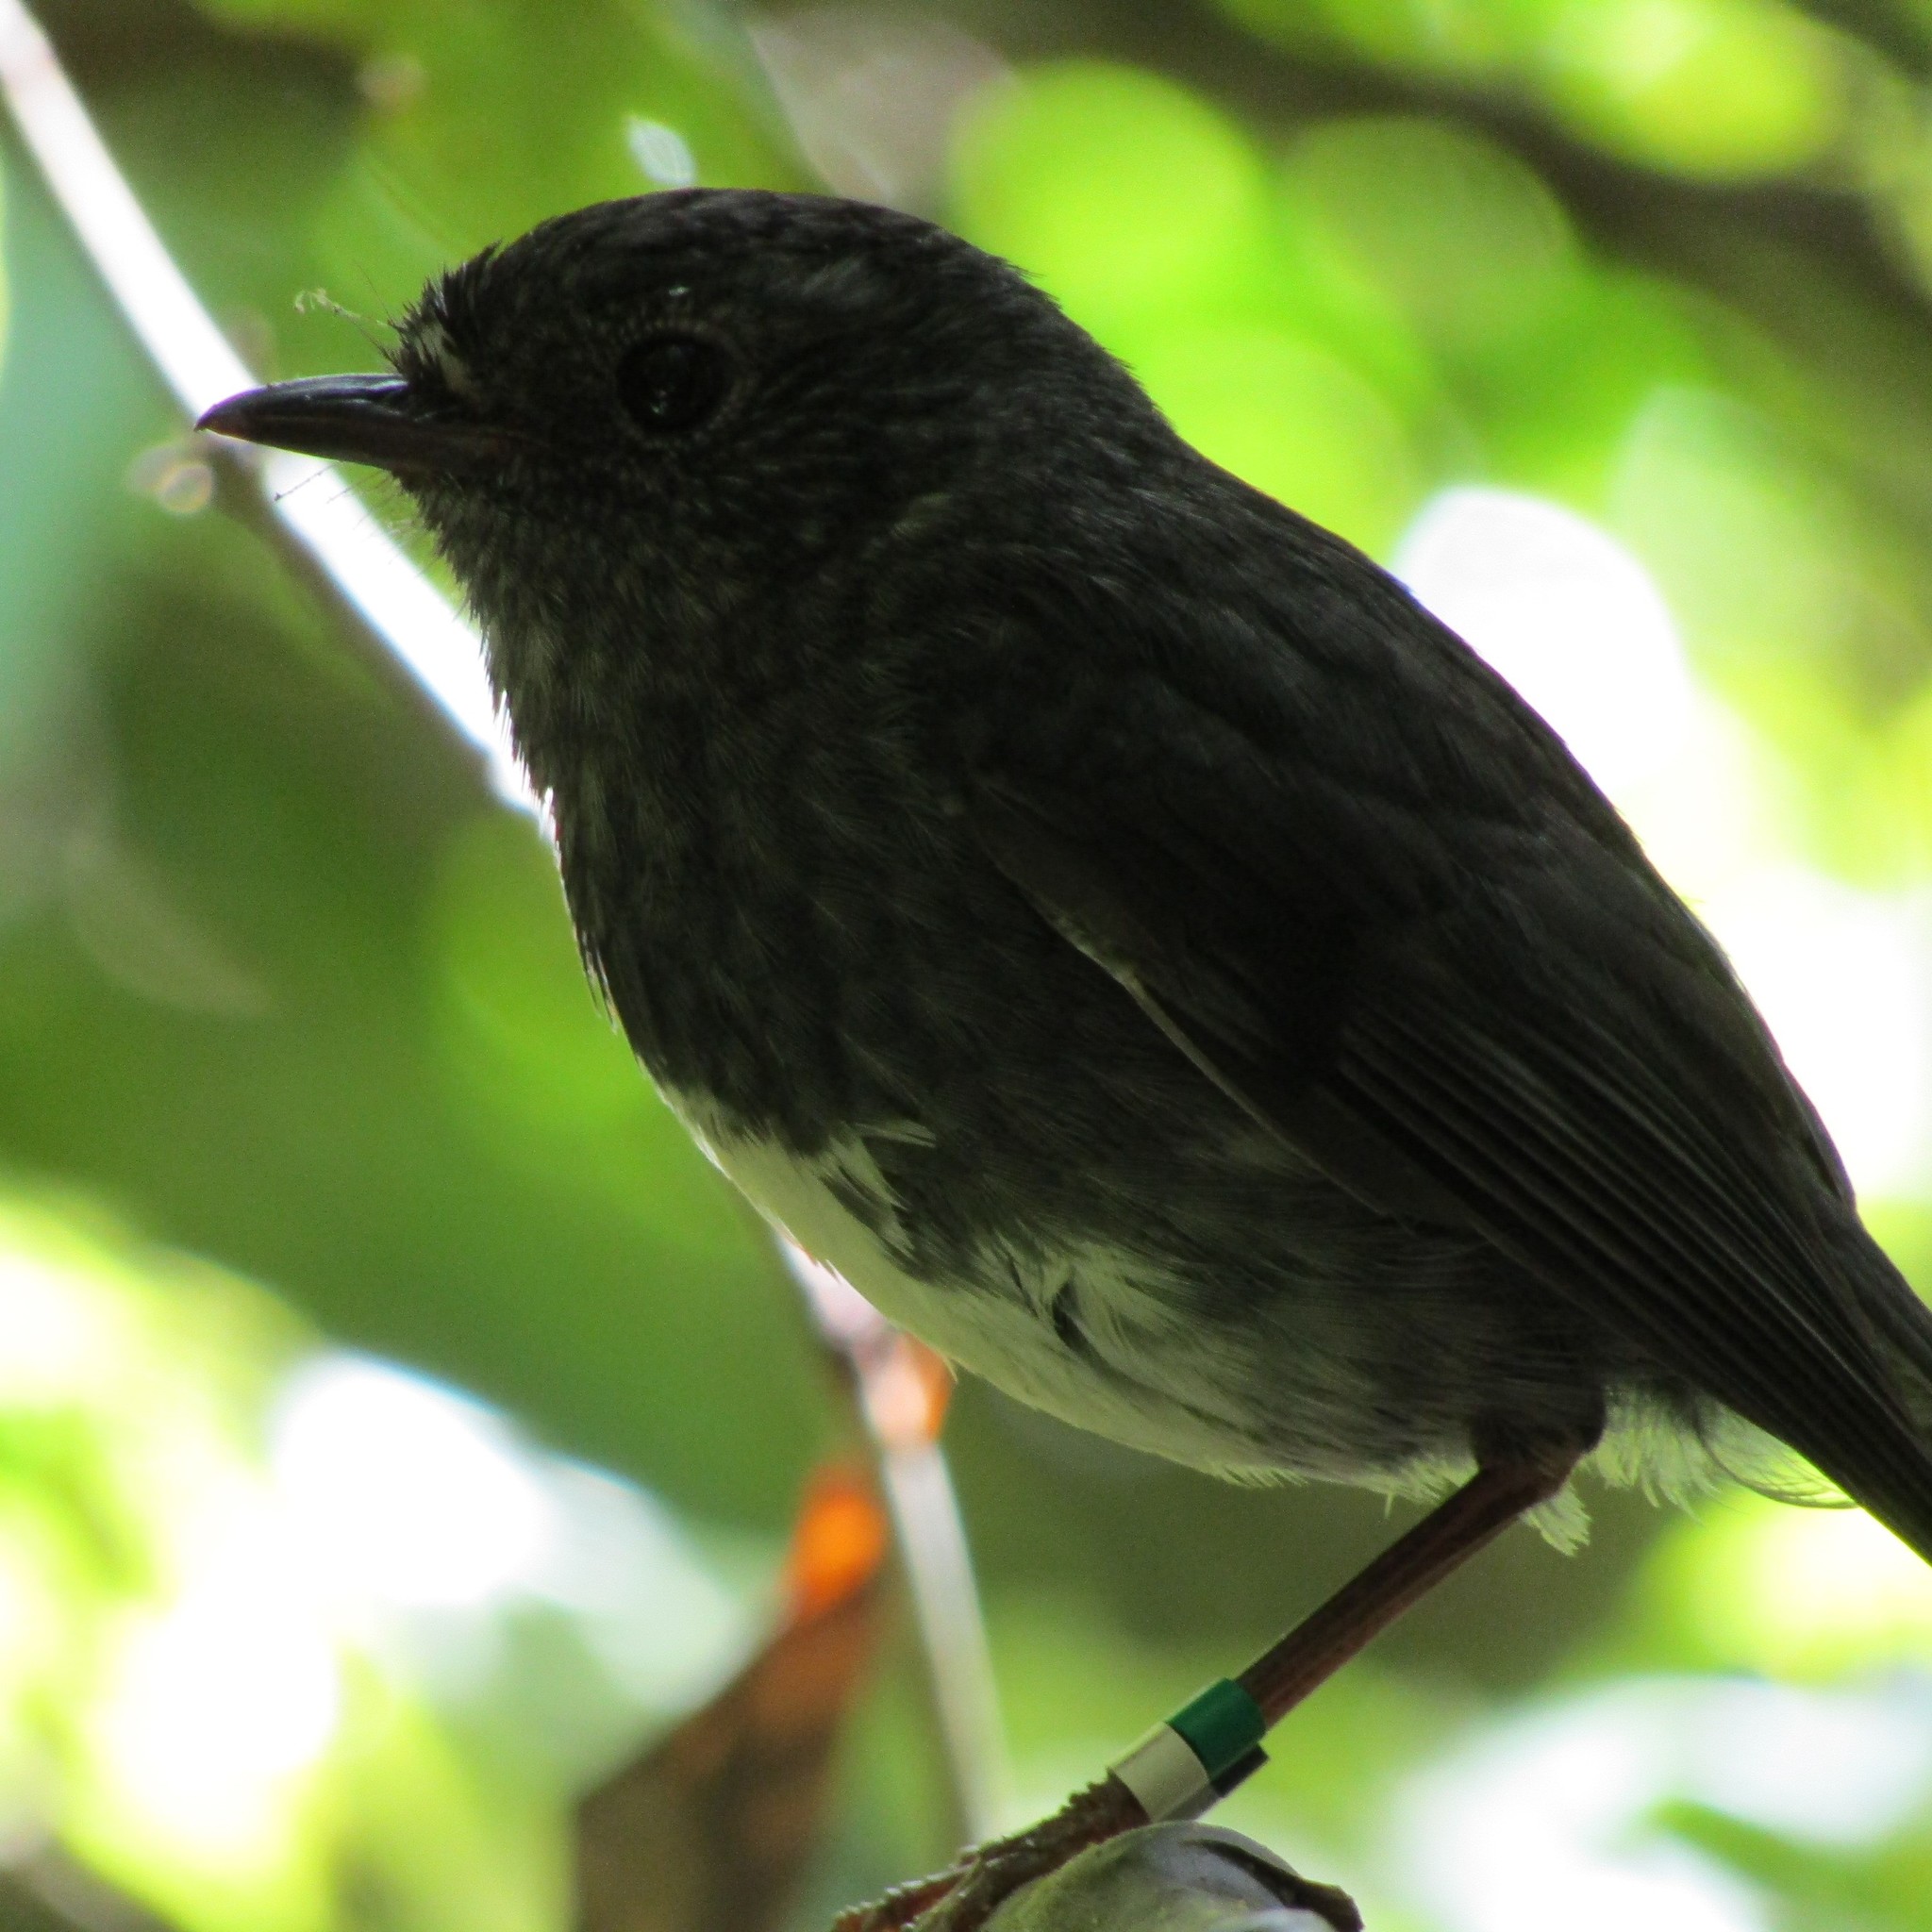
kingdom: Animalia
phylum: Chordata
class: Aves
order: Passeriformes
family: Petroicidae
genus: Petroica
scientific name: Petroica australis
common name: New zealand robin
